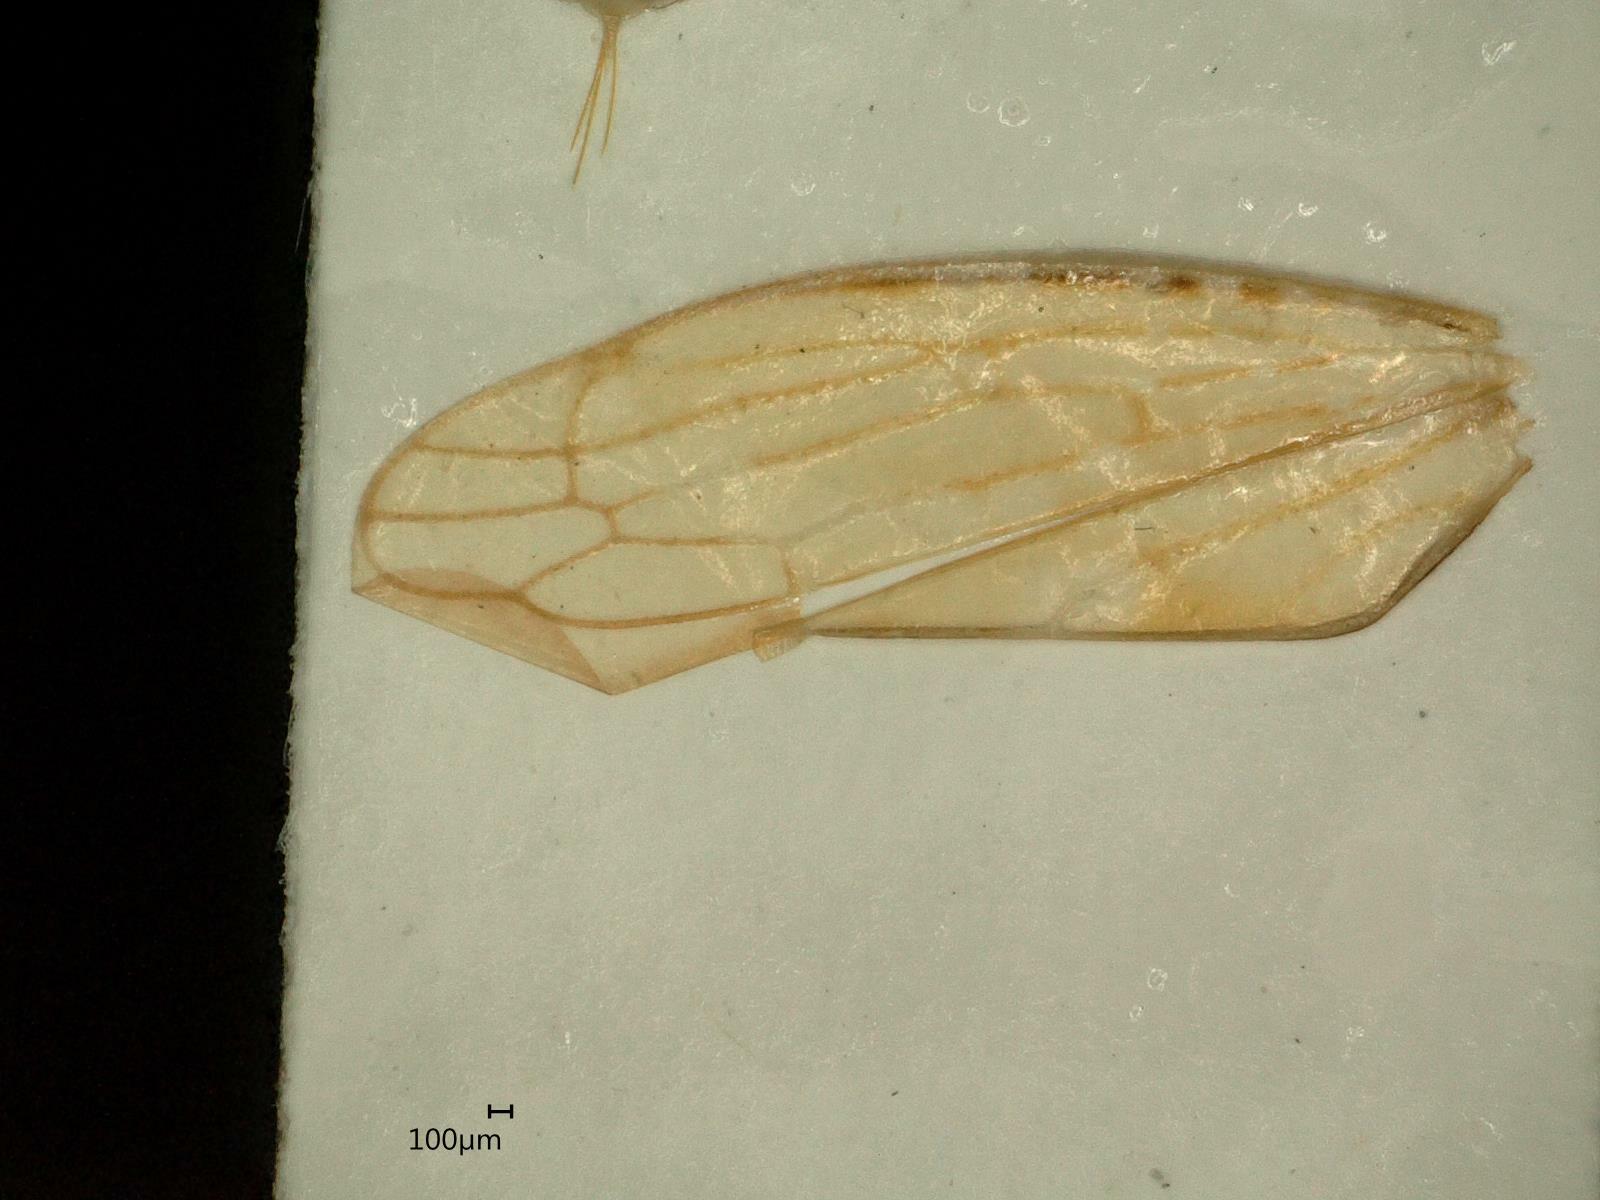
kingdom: Animalia
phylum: Arthropoda
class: Insecta
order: Hemiptera
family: Cicadellidae
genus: Idiocerus
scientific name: Idiocerus stigmaticalis
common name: Leafhopper
